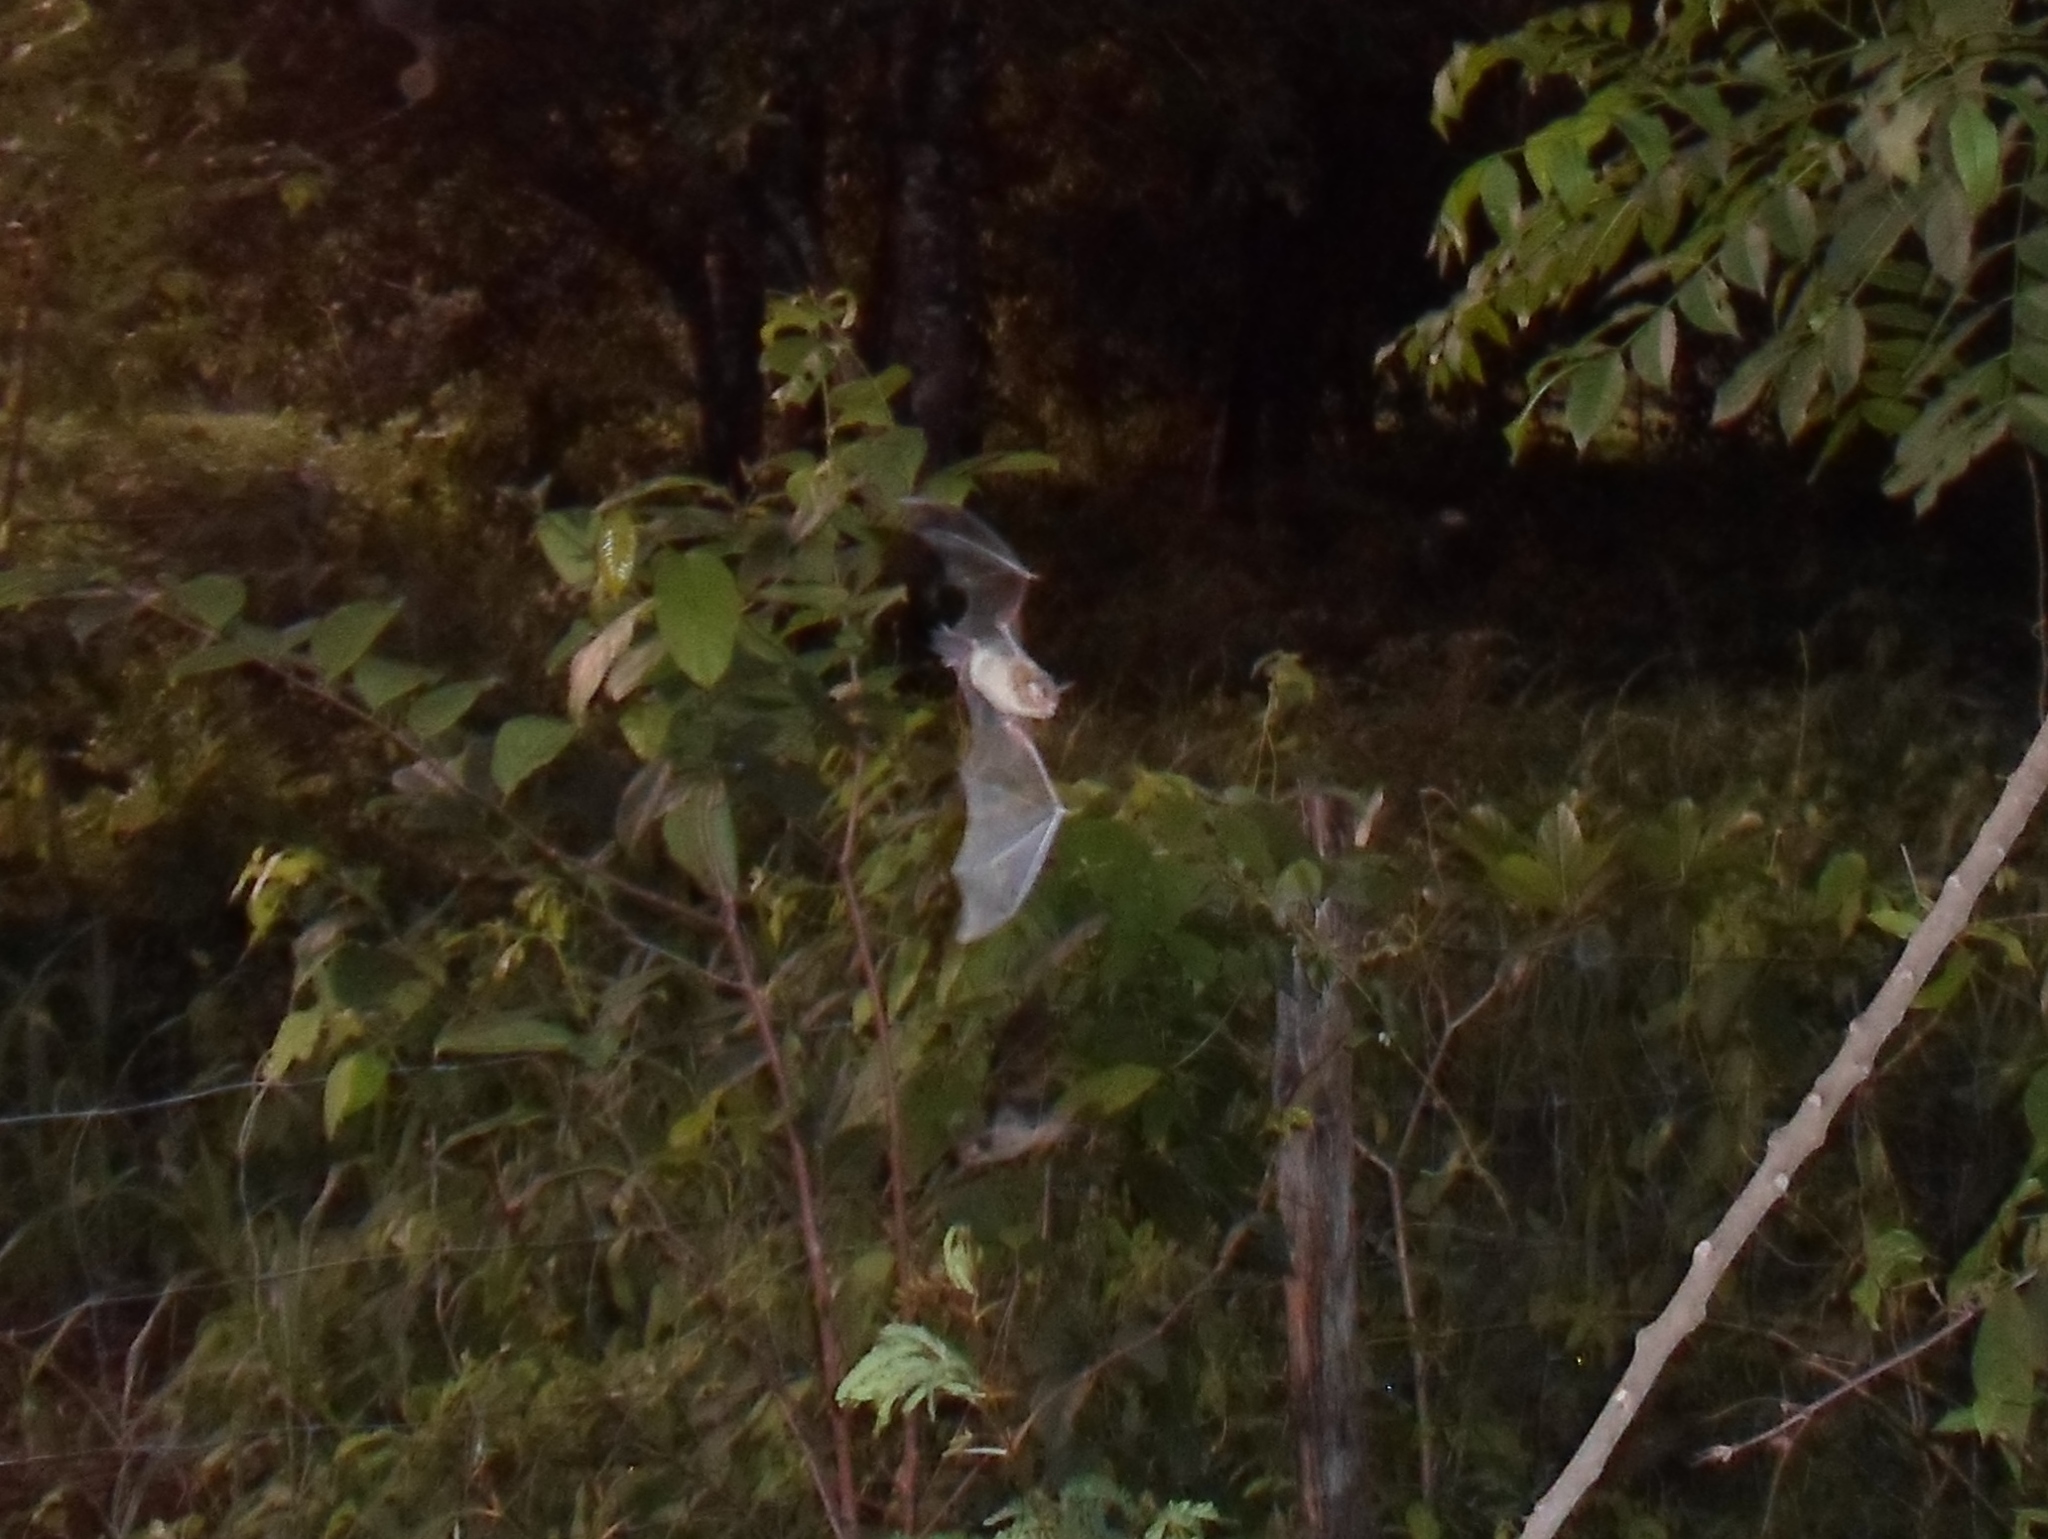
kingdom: Animalia
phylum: Chordata
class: Mammalia
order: Chiroptera
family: Mormoopidae
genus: Pteronotus
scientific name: Pteronotus mesoamericanus
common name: Mesoamerican common mustached bat
